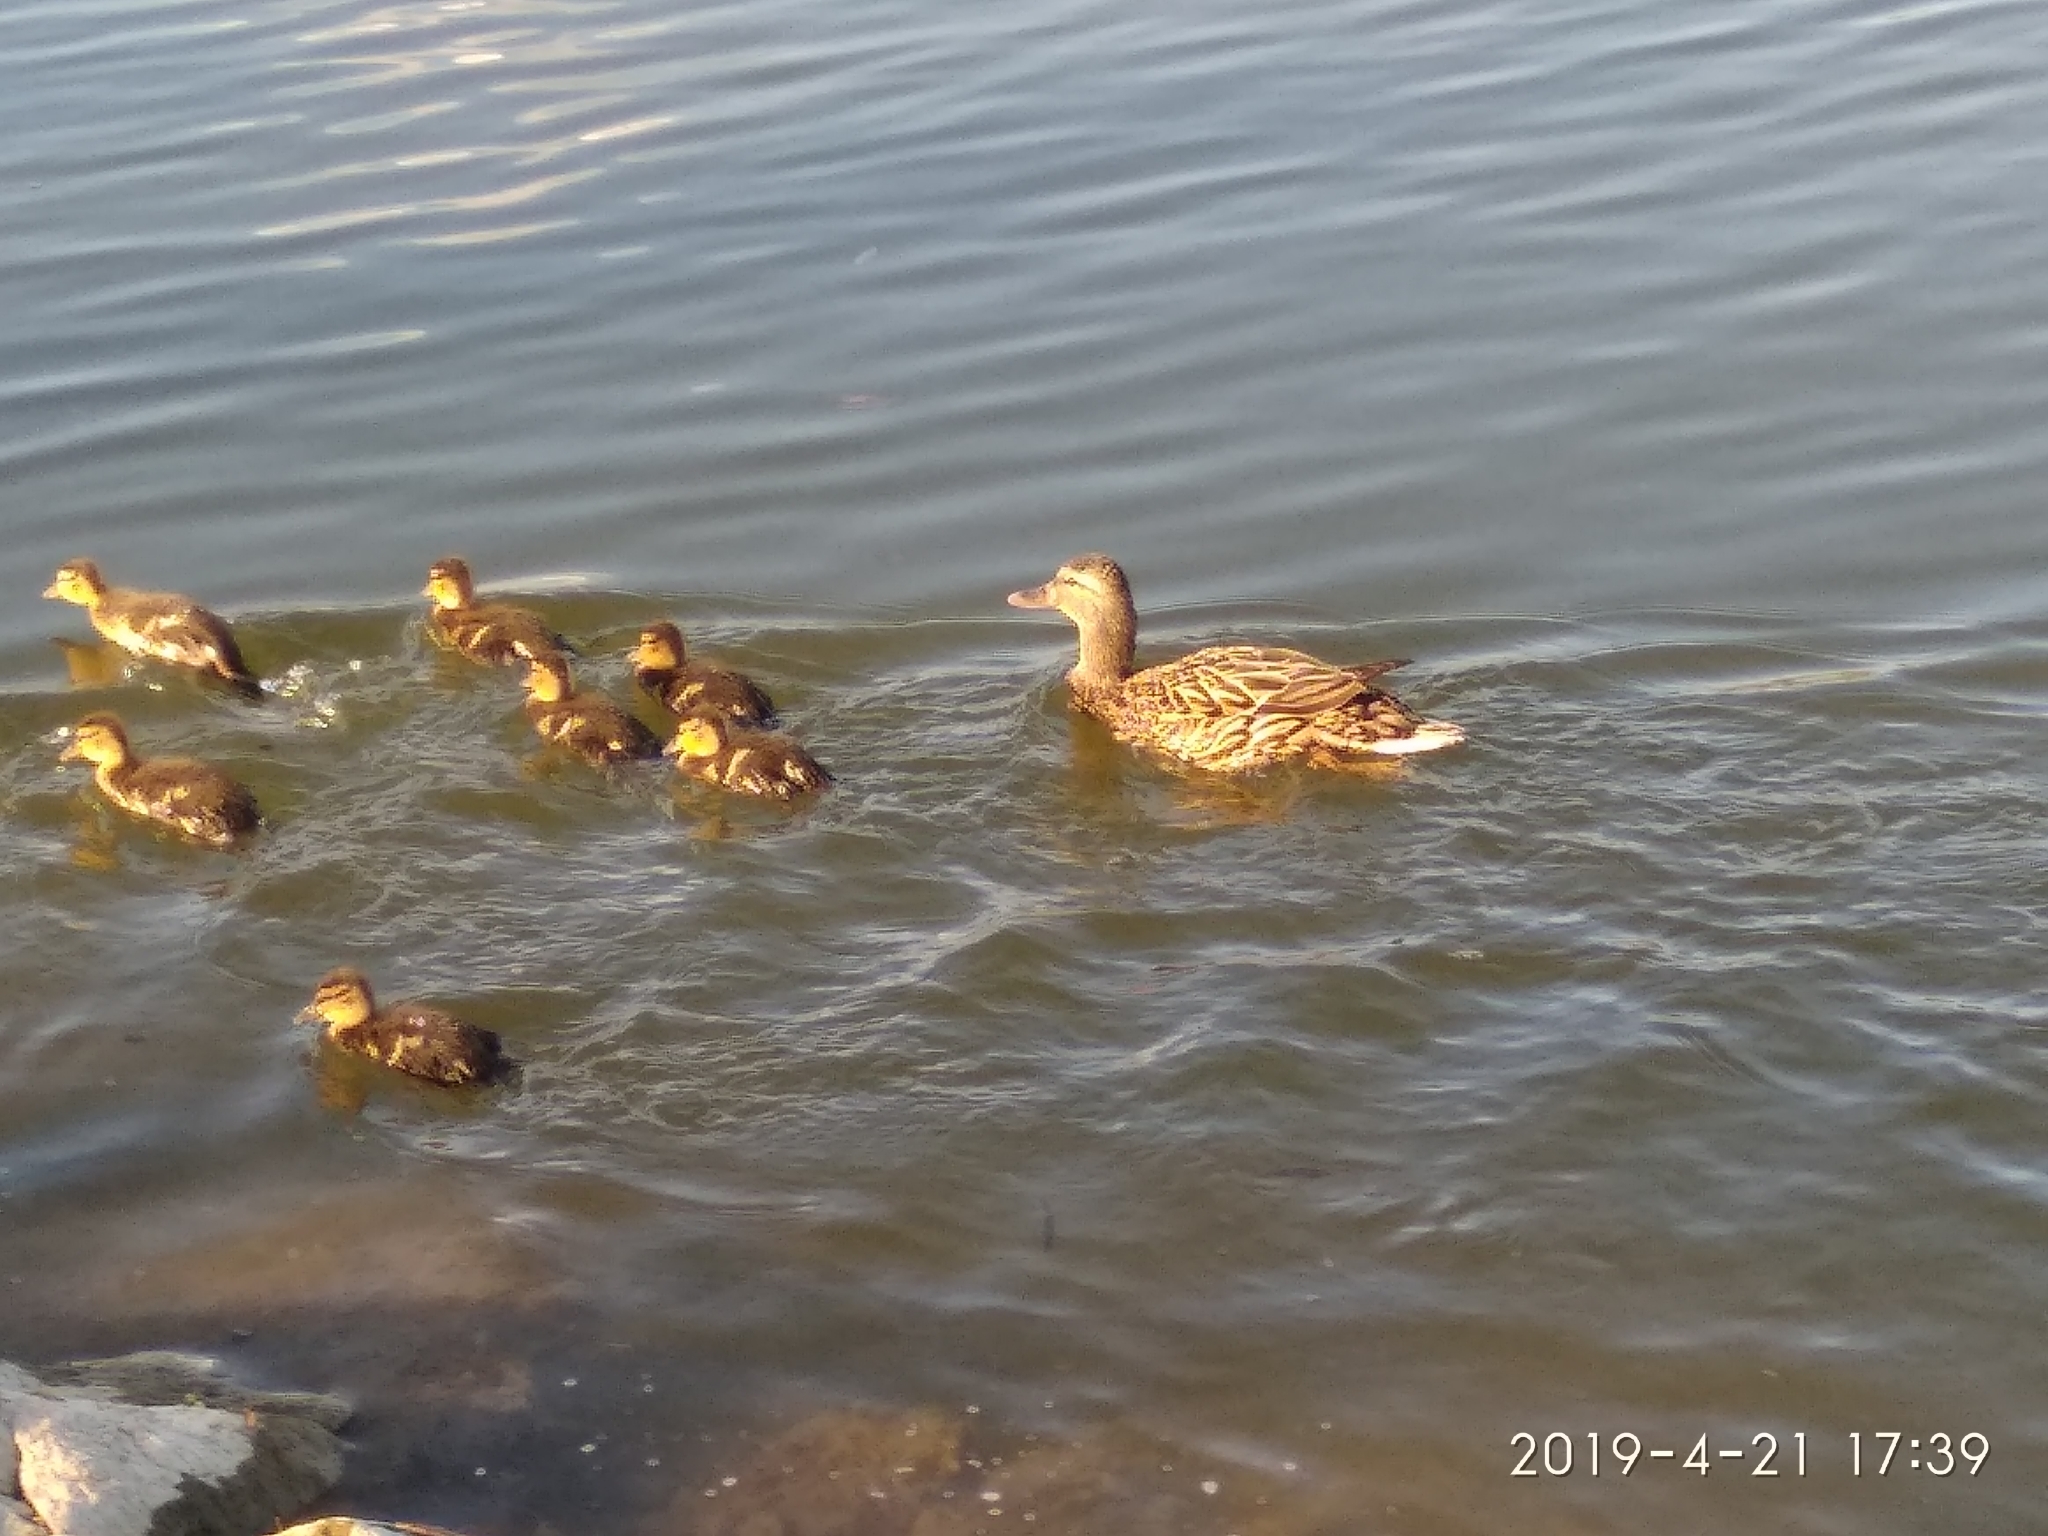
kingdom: Animalia
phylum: Chordata
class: Aves
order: Anseriformes
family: Anatidae
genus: Anas
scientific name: Anas platyrhynchos
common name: Mallard
